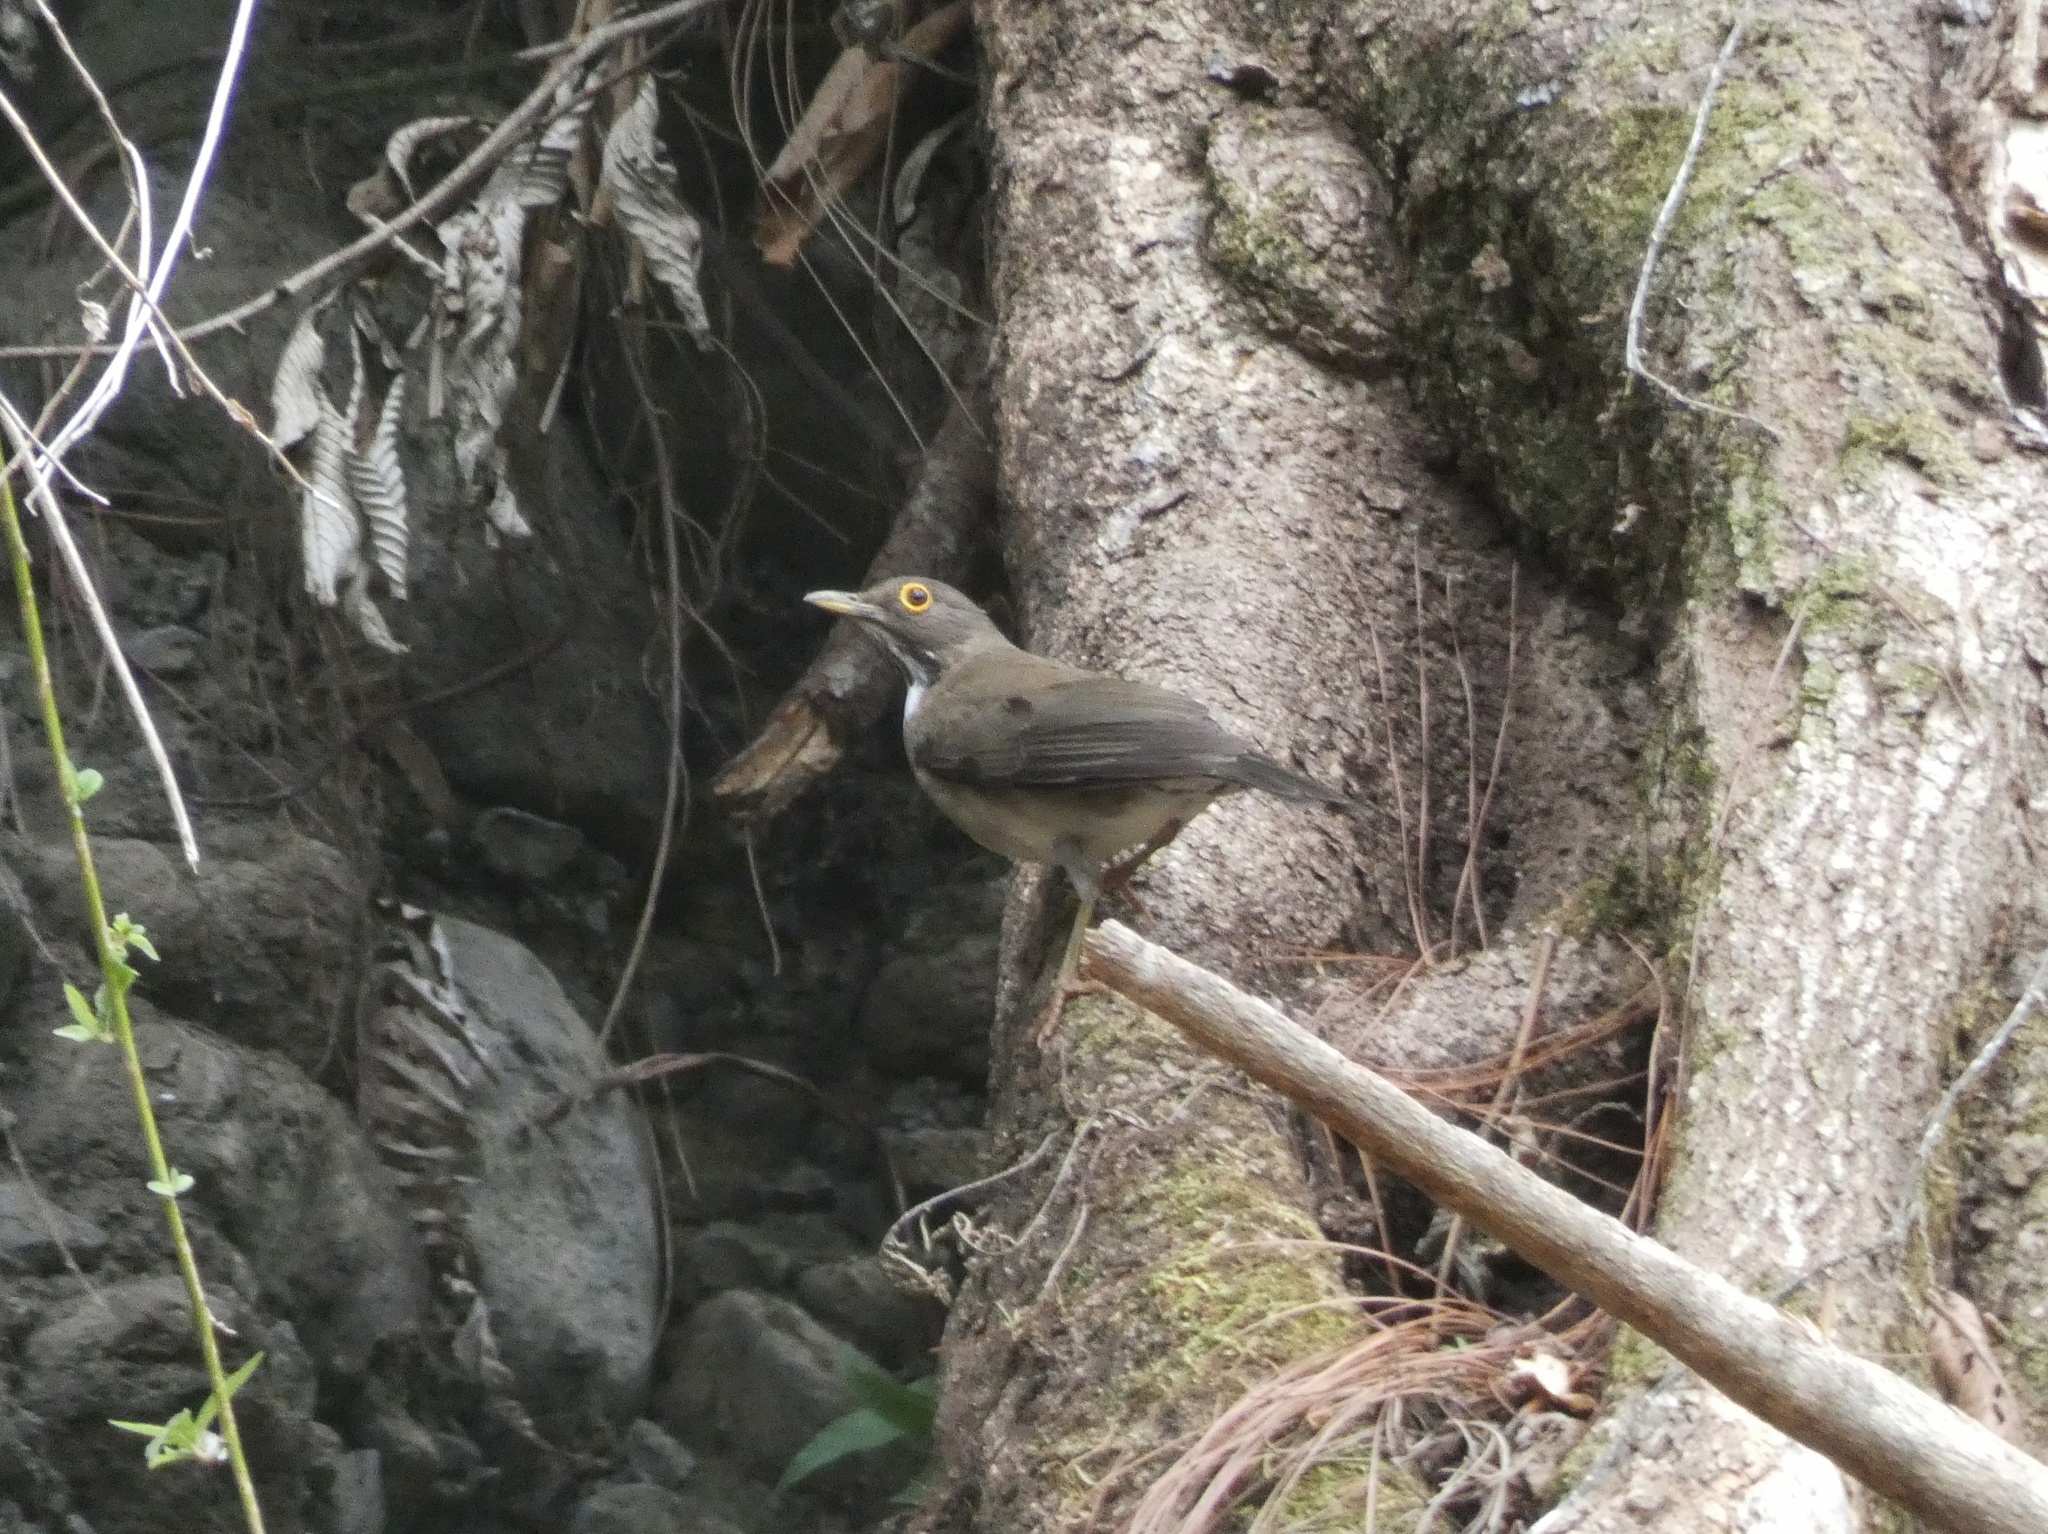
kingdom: Animalia
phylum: Chordata
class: Aves
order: Passeriformes
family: Turdidae
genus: Turdus
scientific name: Turdus assimilis
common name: White-throated thrush
